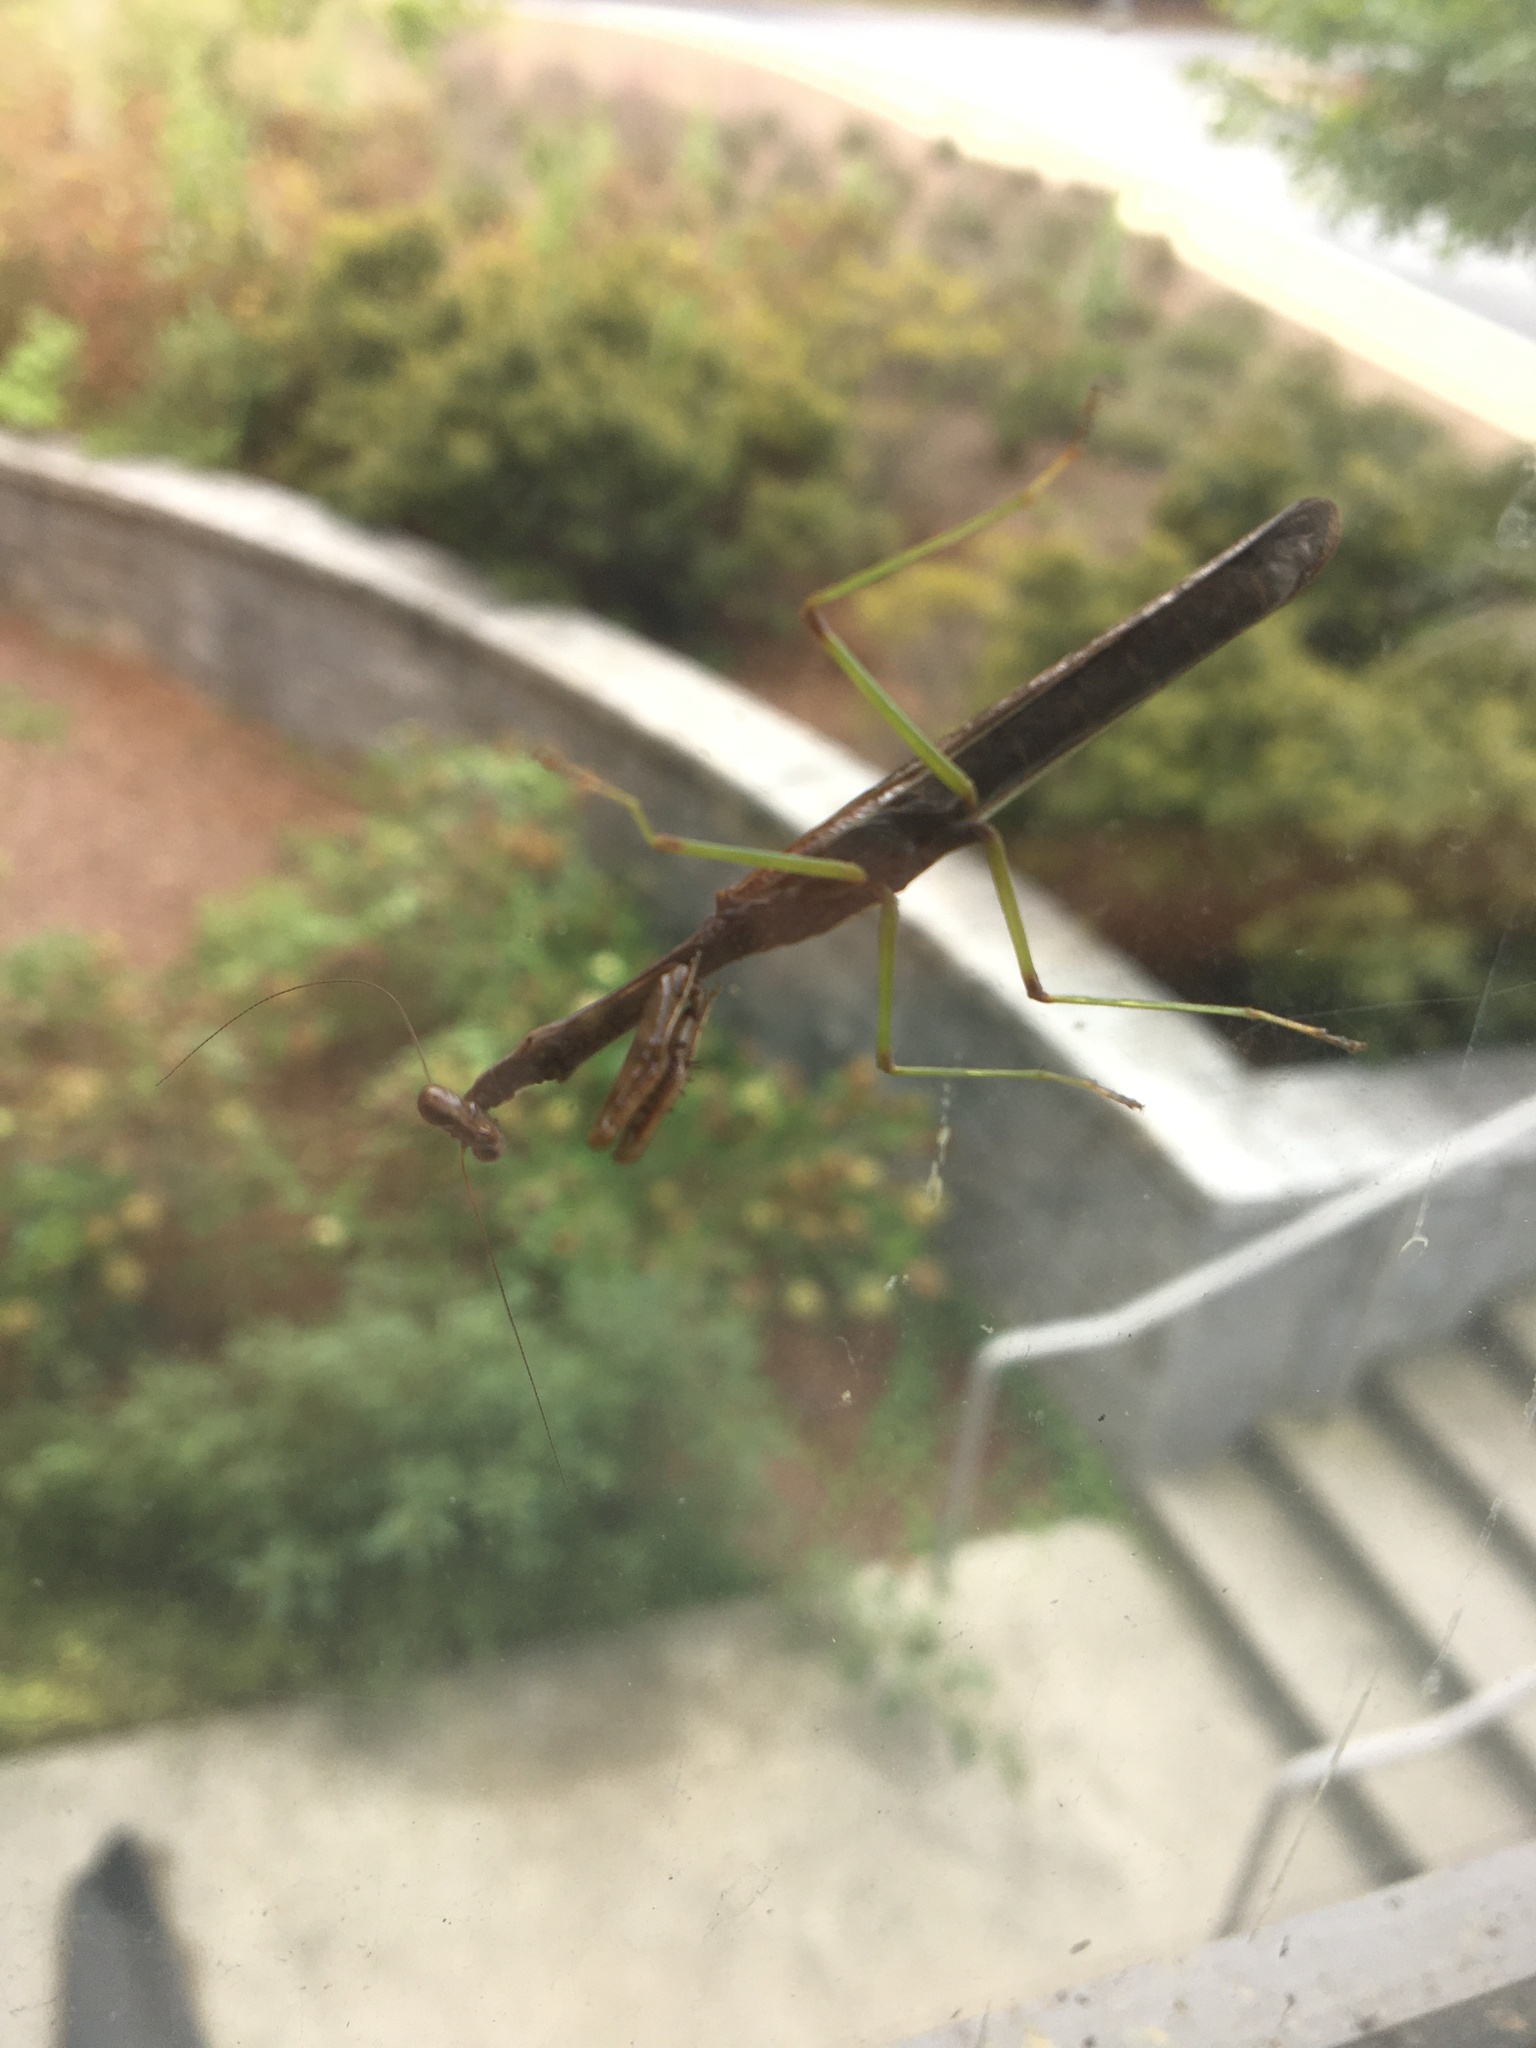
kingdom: Animalia
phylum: Arthropoda
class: Insecta
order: Mantodea
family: Mantidae
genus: Stagmomantis
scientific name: Stagmomantis carolina
